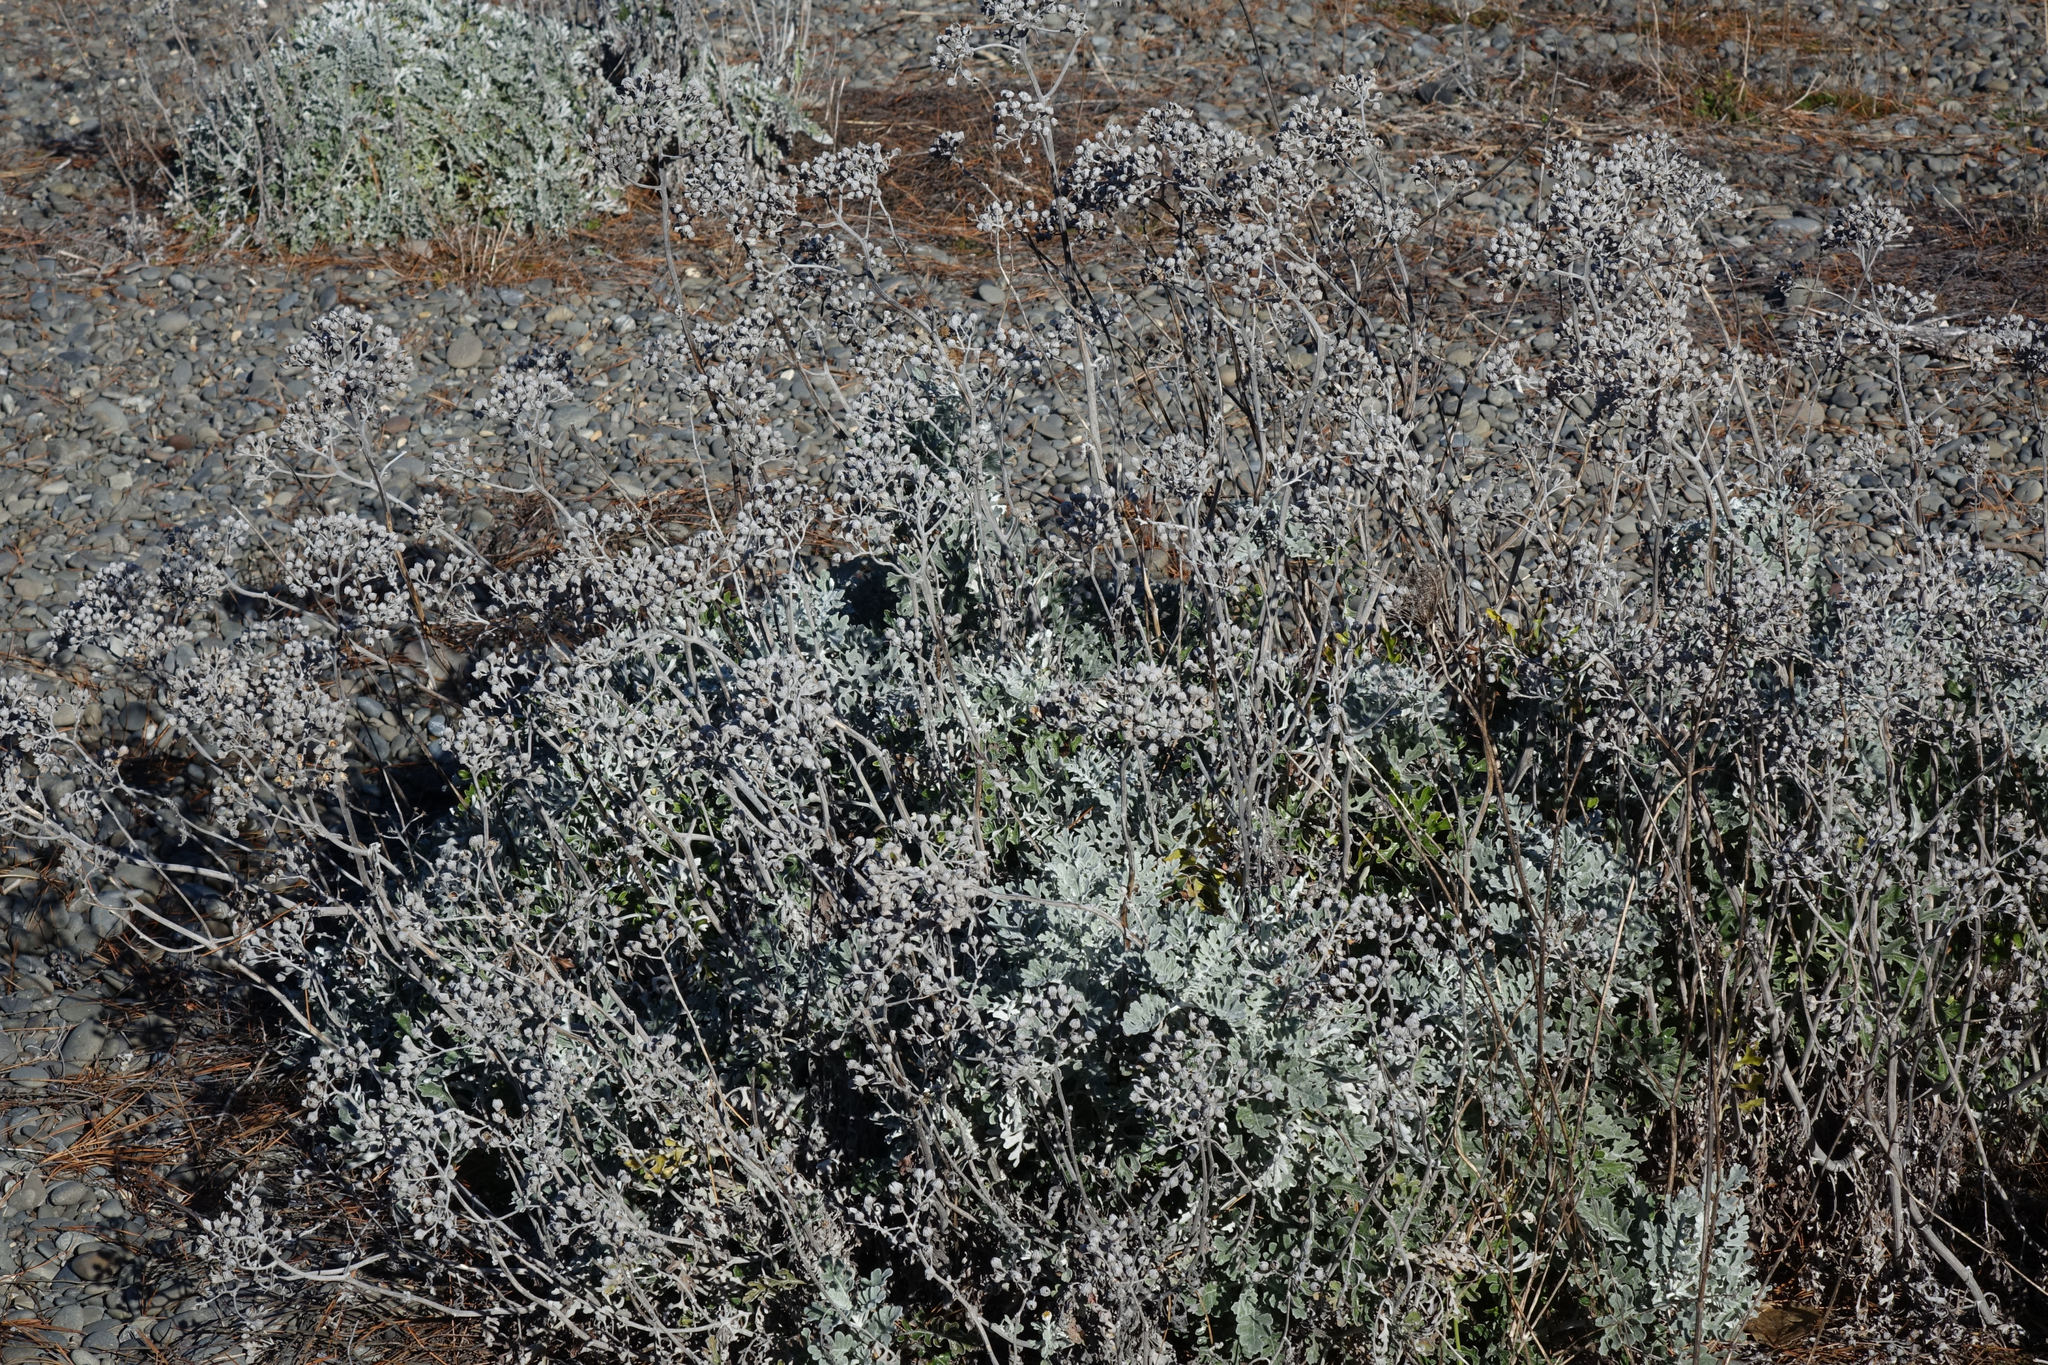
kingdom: Plantae
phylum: Tracheophyta
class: Magnoliopsida
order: Asterales
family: Asteraceae
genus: Jacobaea
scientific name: Jacobaea maritima
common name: Silver ragwort
